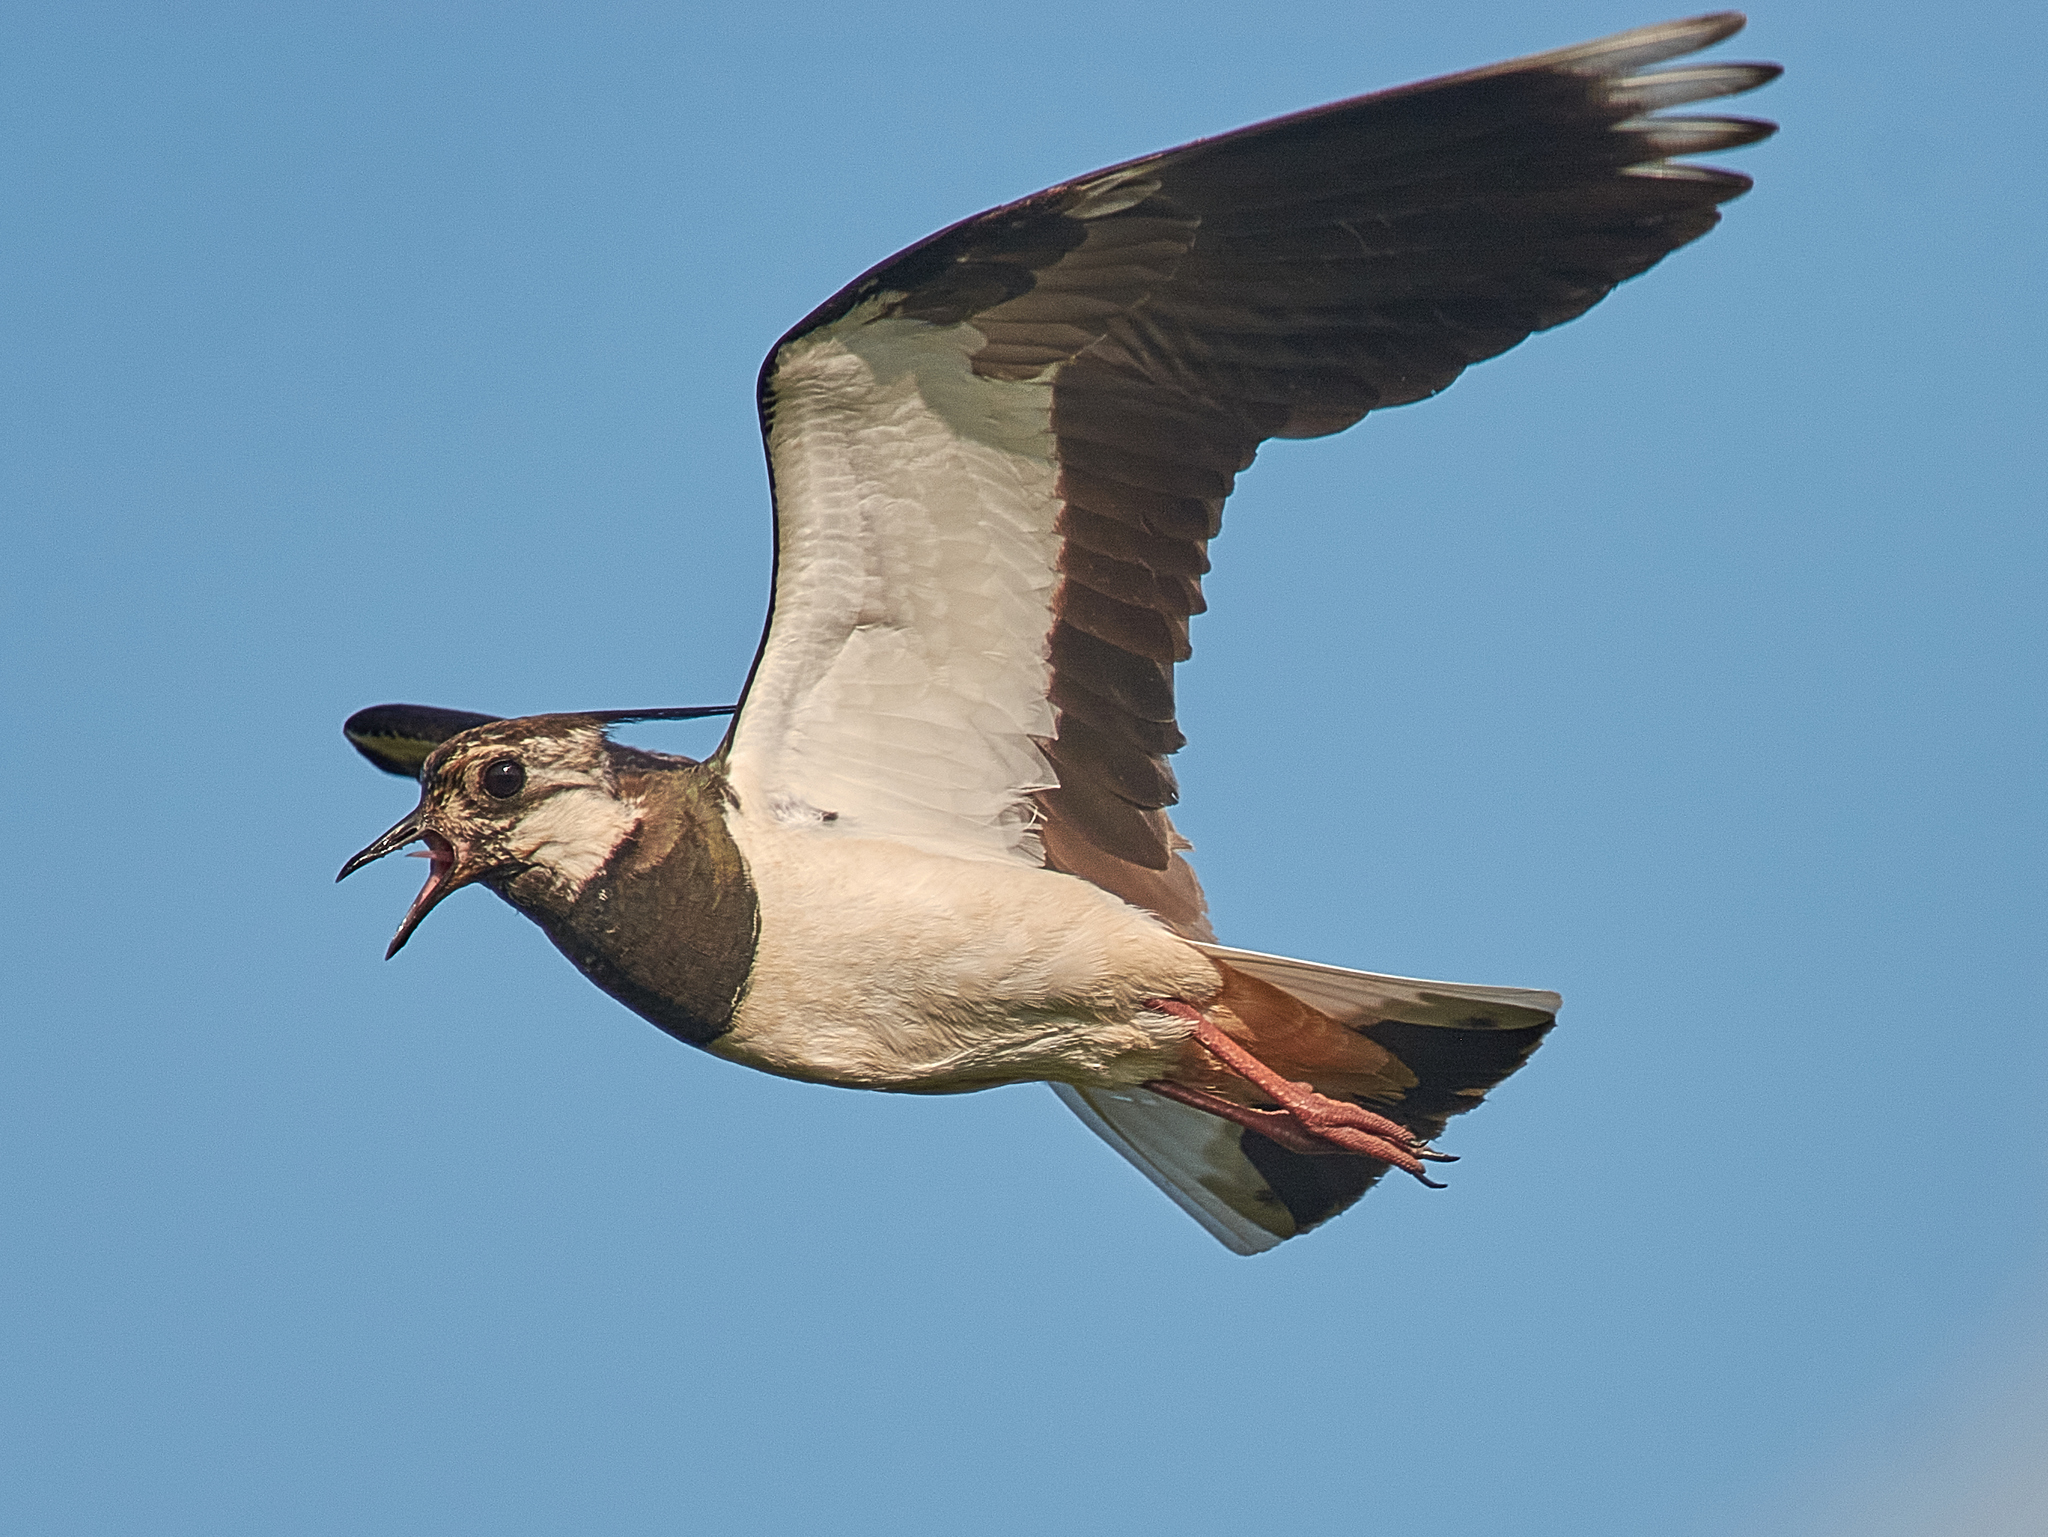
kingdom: Animalia
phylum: Chordata
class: Aves
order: Charadriiformes
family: Charadriidae
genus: Vanellus
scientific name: Vanellus vanellus
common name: Northern lapwing
